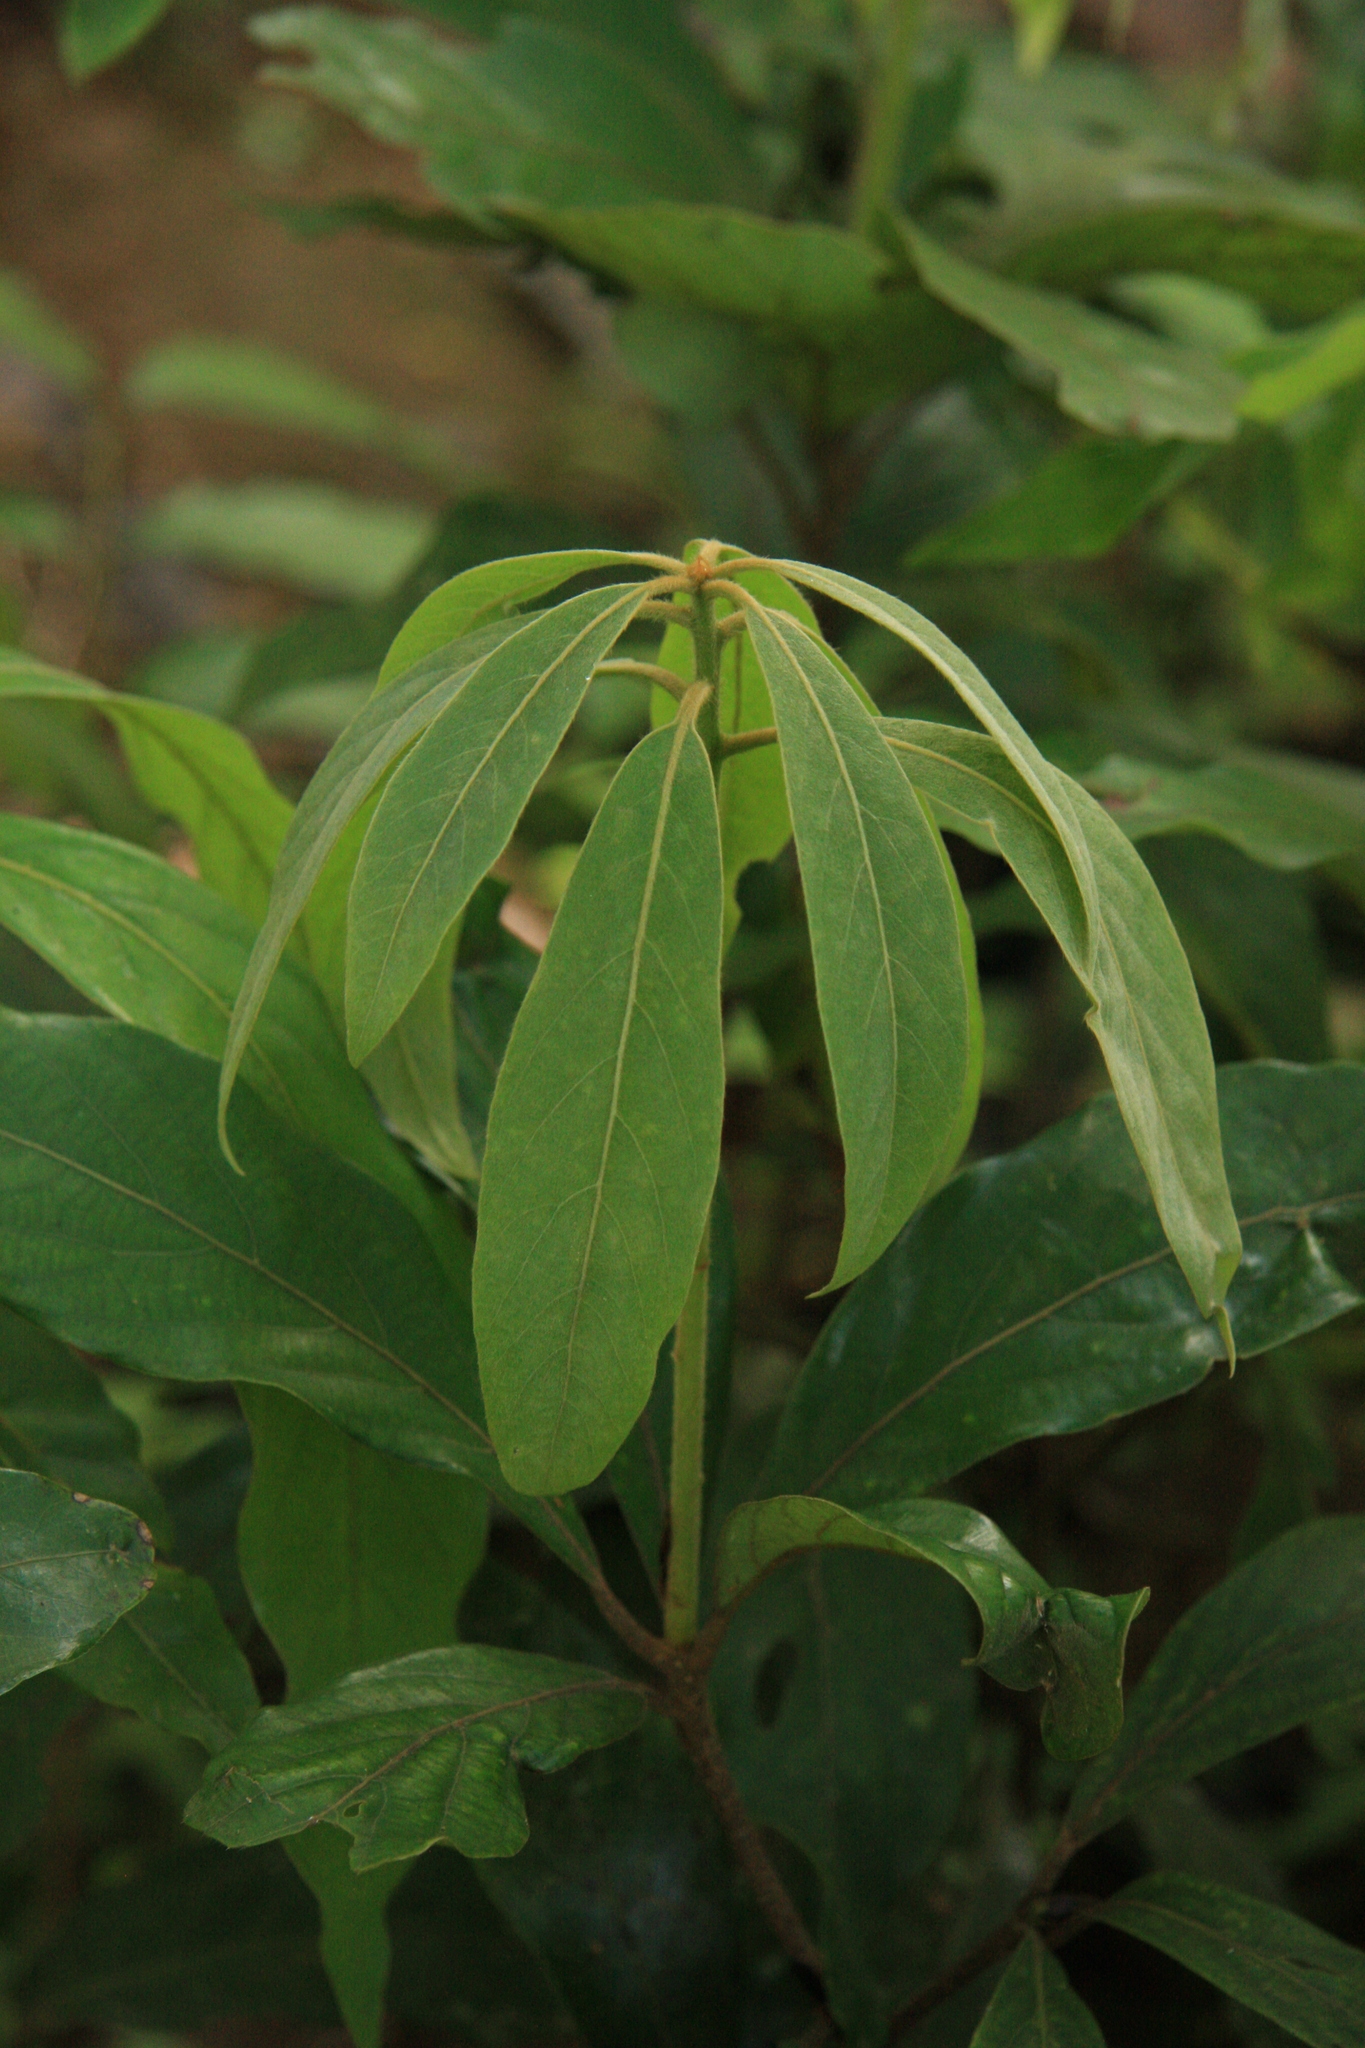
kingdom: Plantae
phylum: Tracheophyta
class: Magnoliopsida
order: Laurales
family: Lauraceae
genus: Actinodaphne
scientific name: Actinodaphne wightiana
